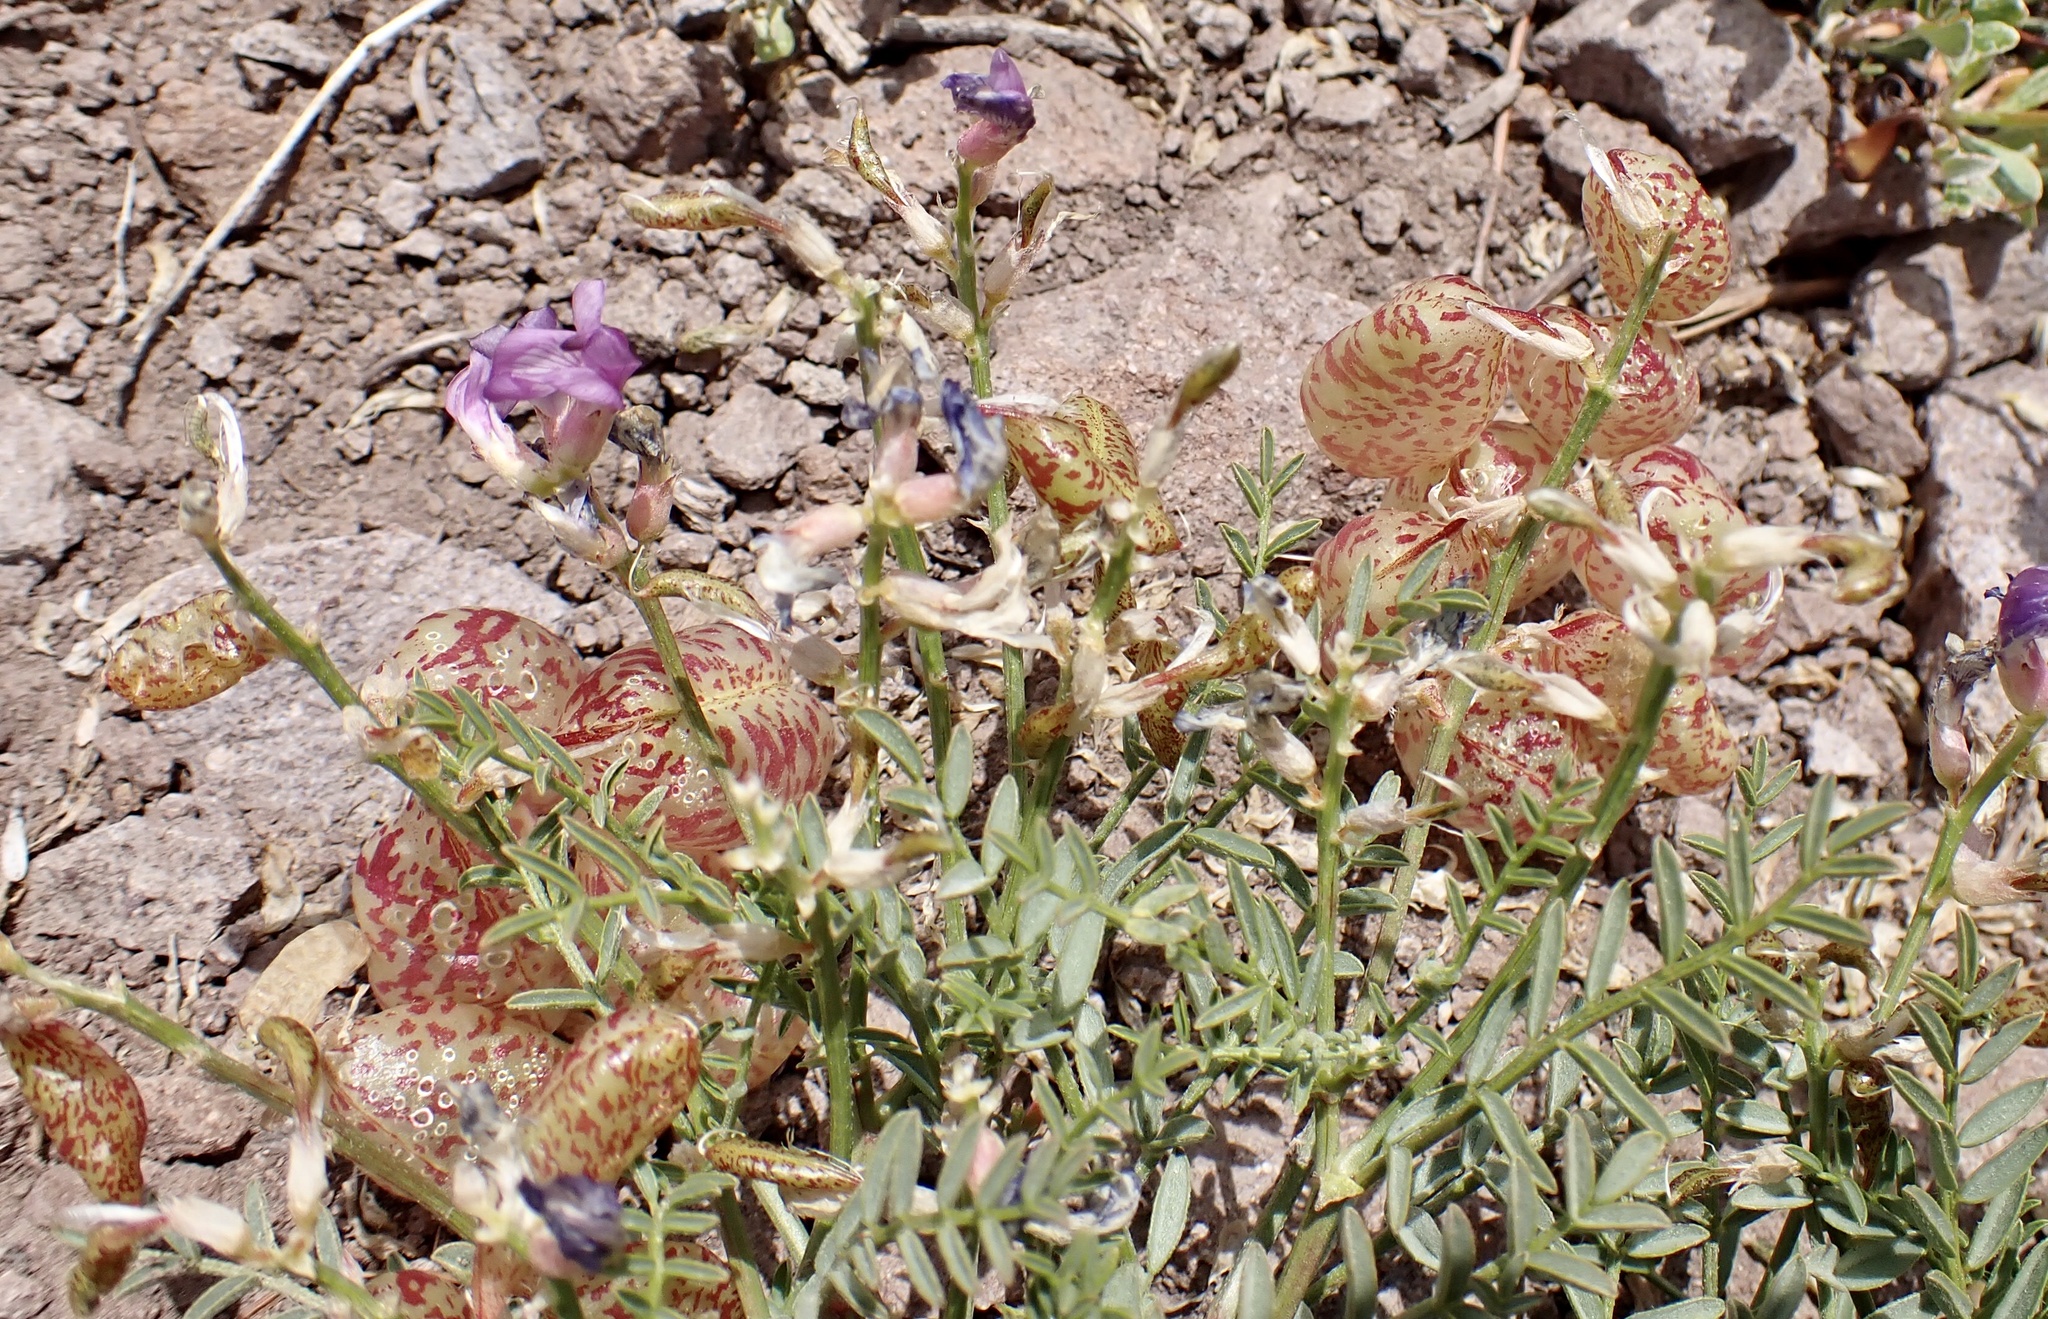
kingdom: Plantae
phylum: Tracheophyta
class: Magnoliopsida
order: Fabales
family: Fabaceae
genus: Astragalus
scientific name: Astragalus whitneyi
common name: Balloonpod milkvetch
